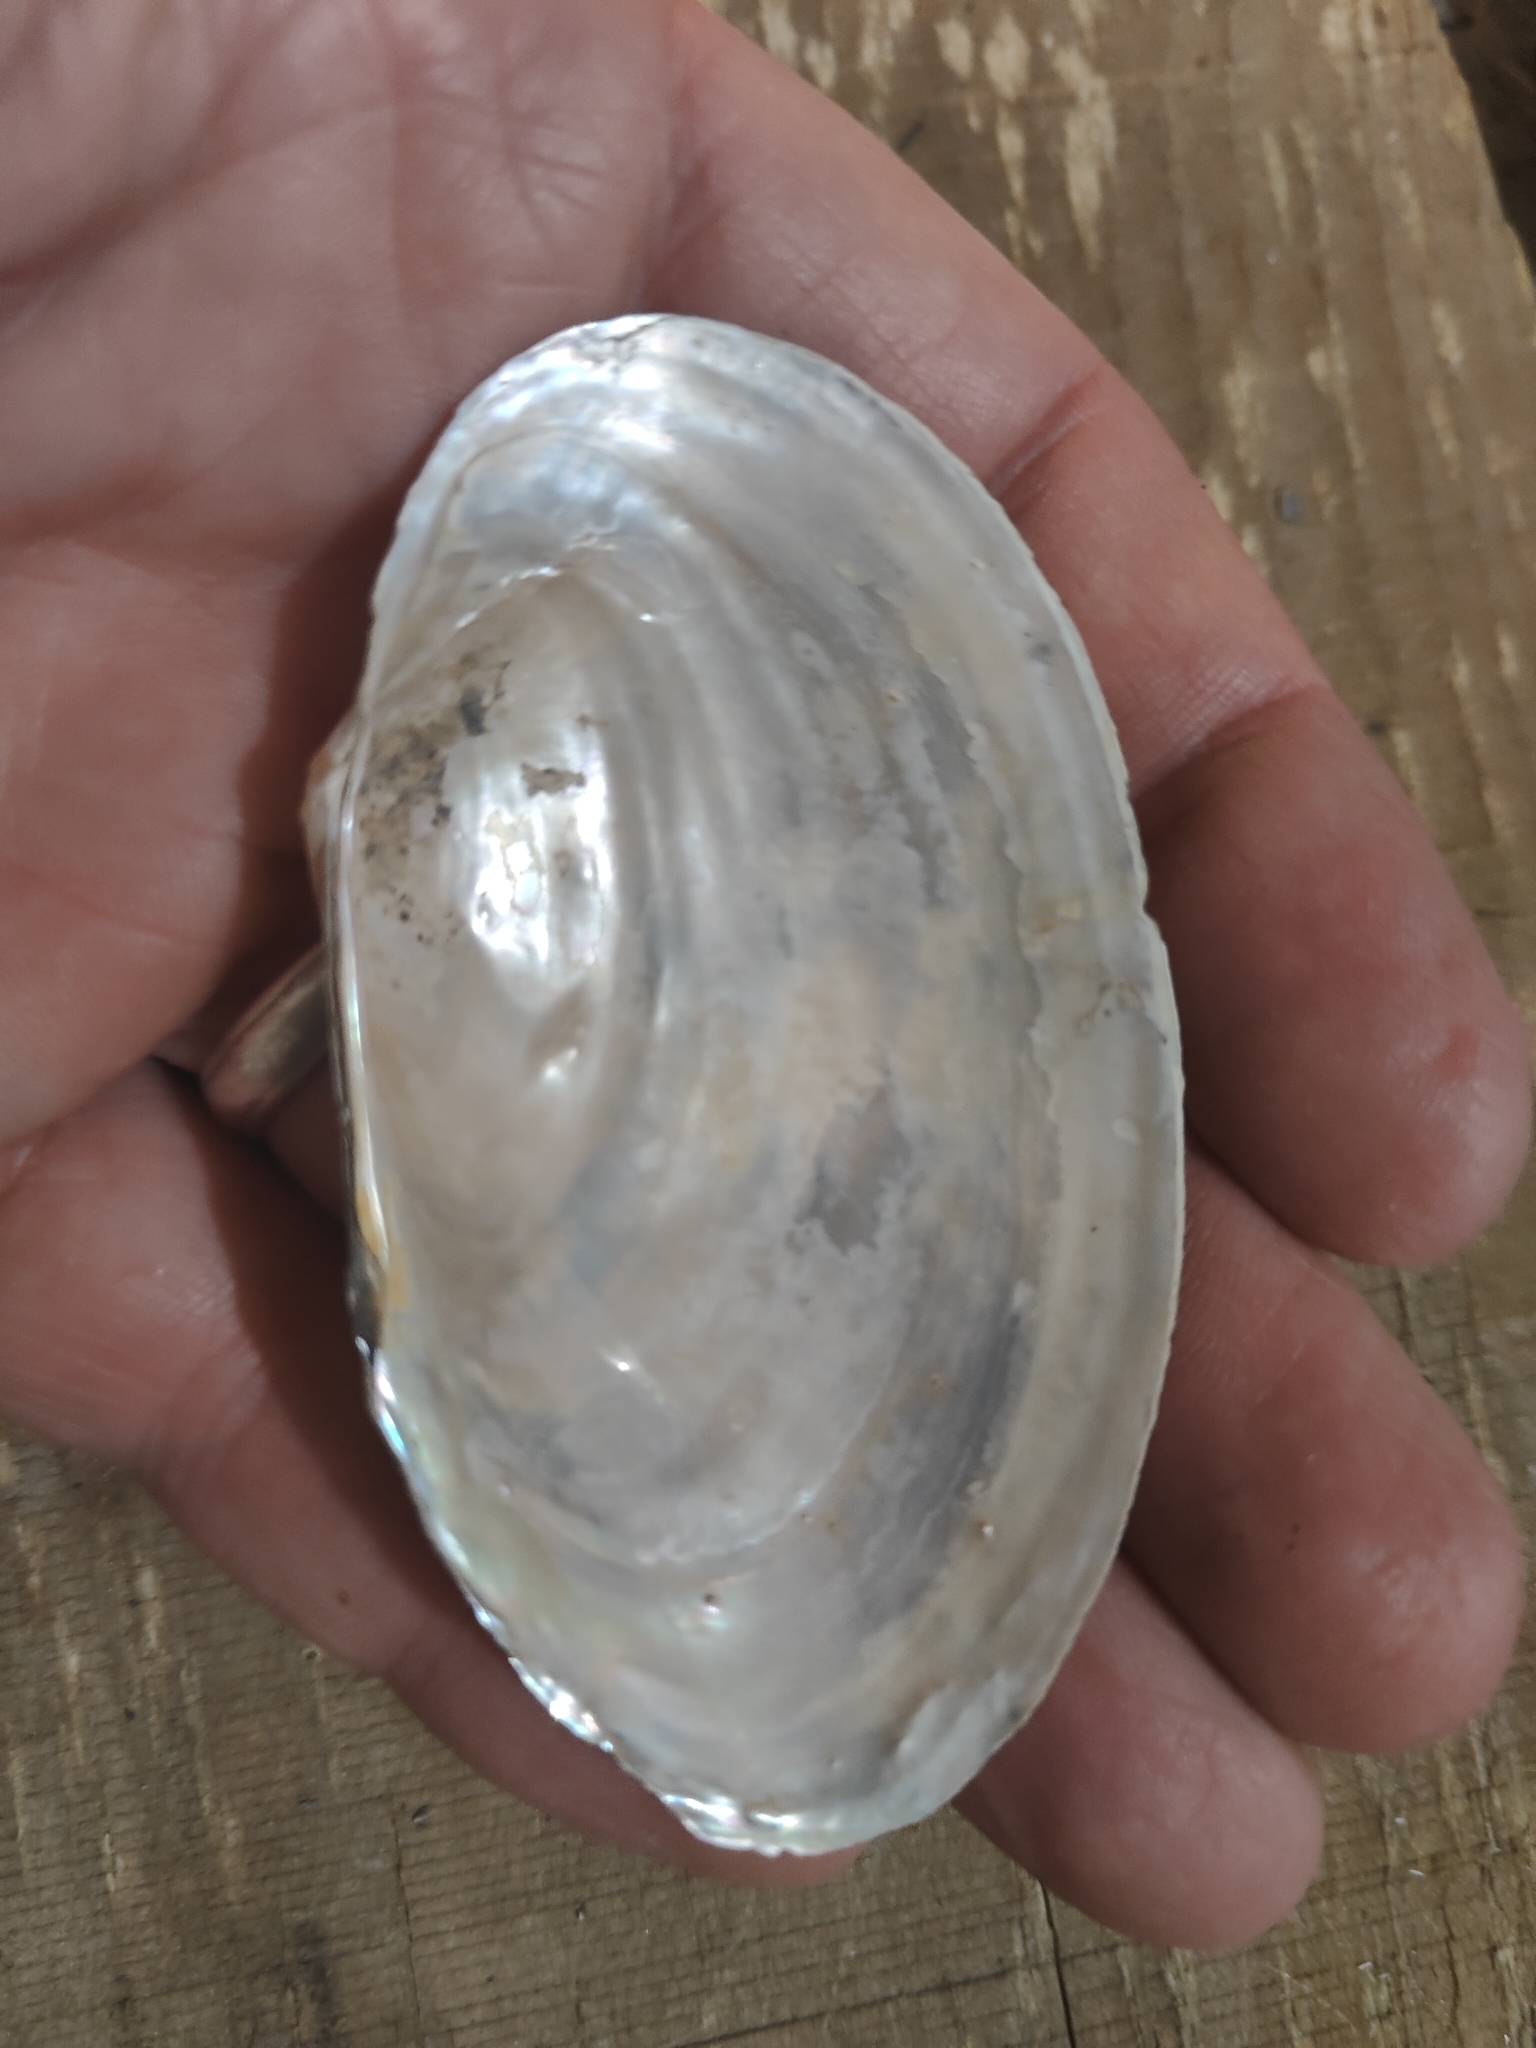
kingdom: Animalia
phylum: Mollusca
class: Bivalvia
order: Unionida
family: Unionidae
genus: Pyganodon
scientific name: Pyganodon grandis
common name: Giant floater
